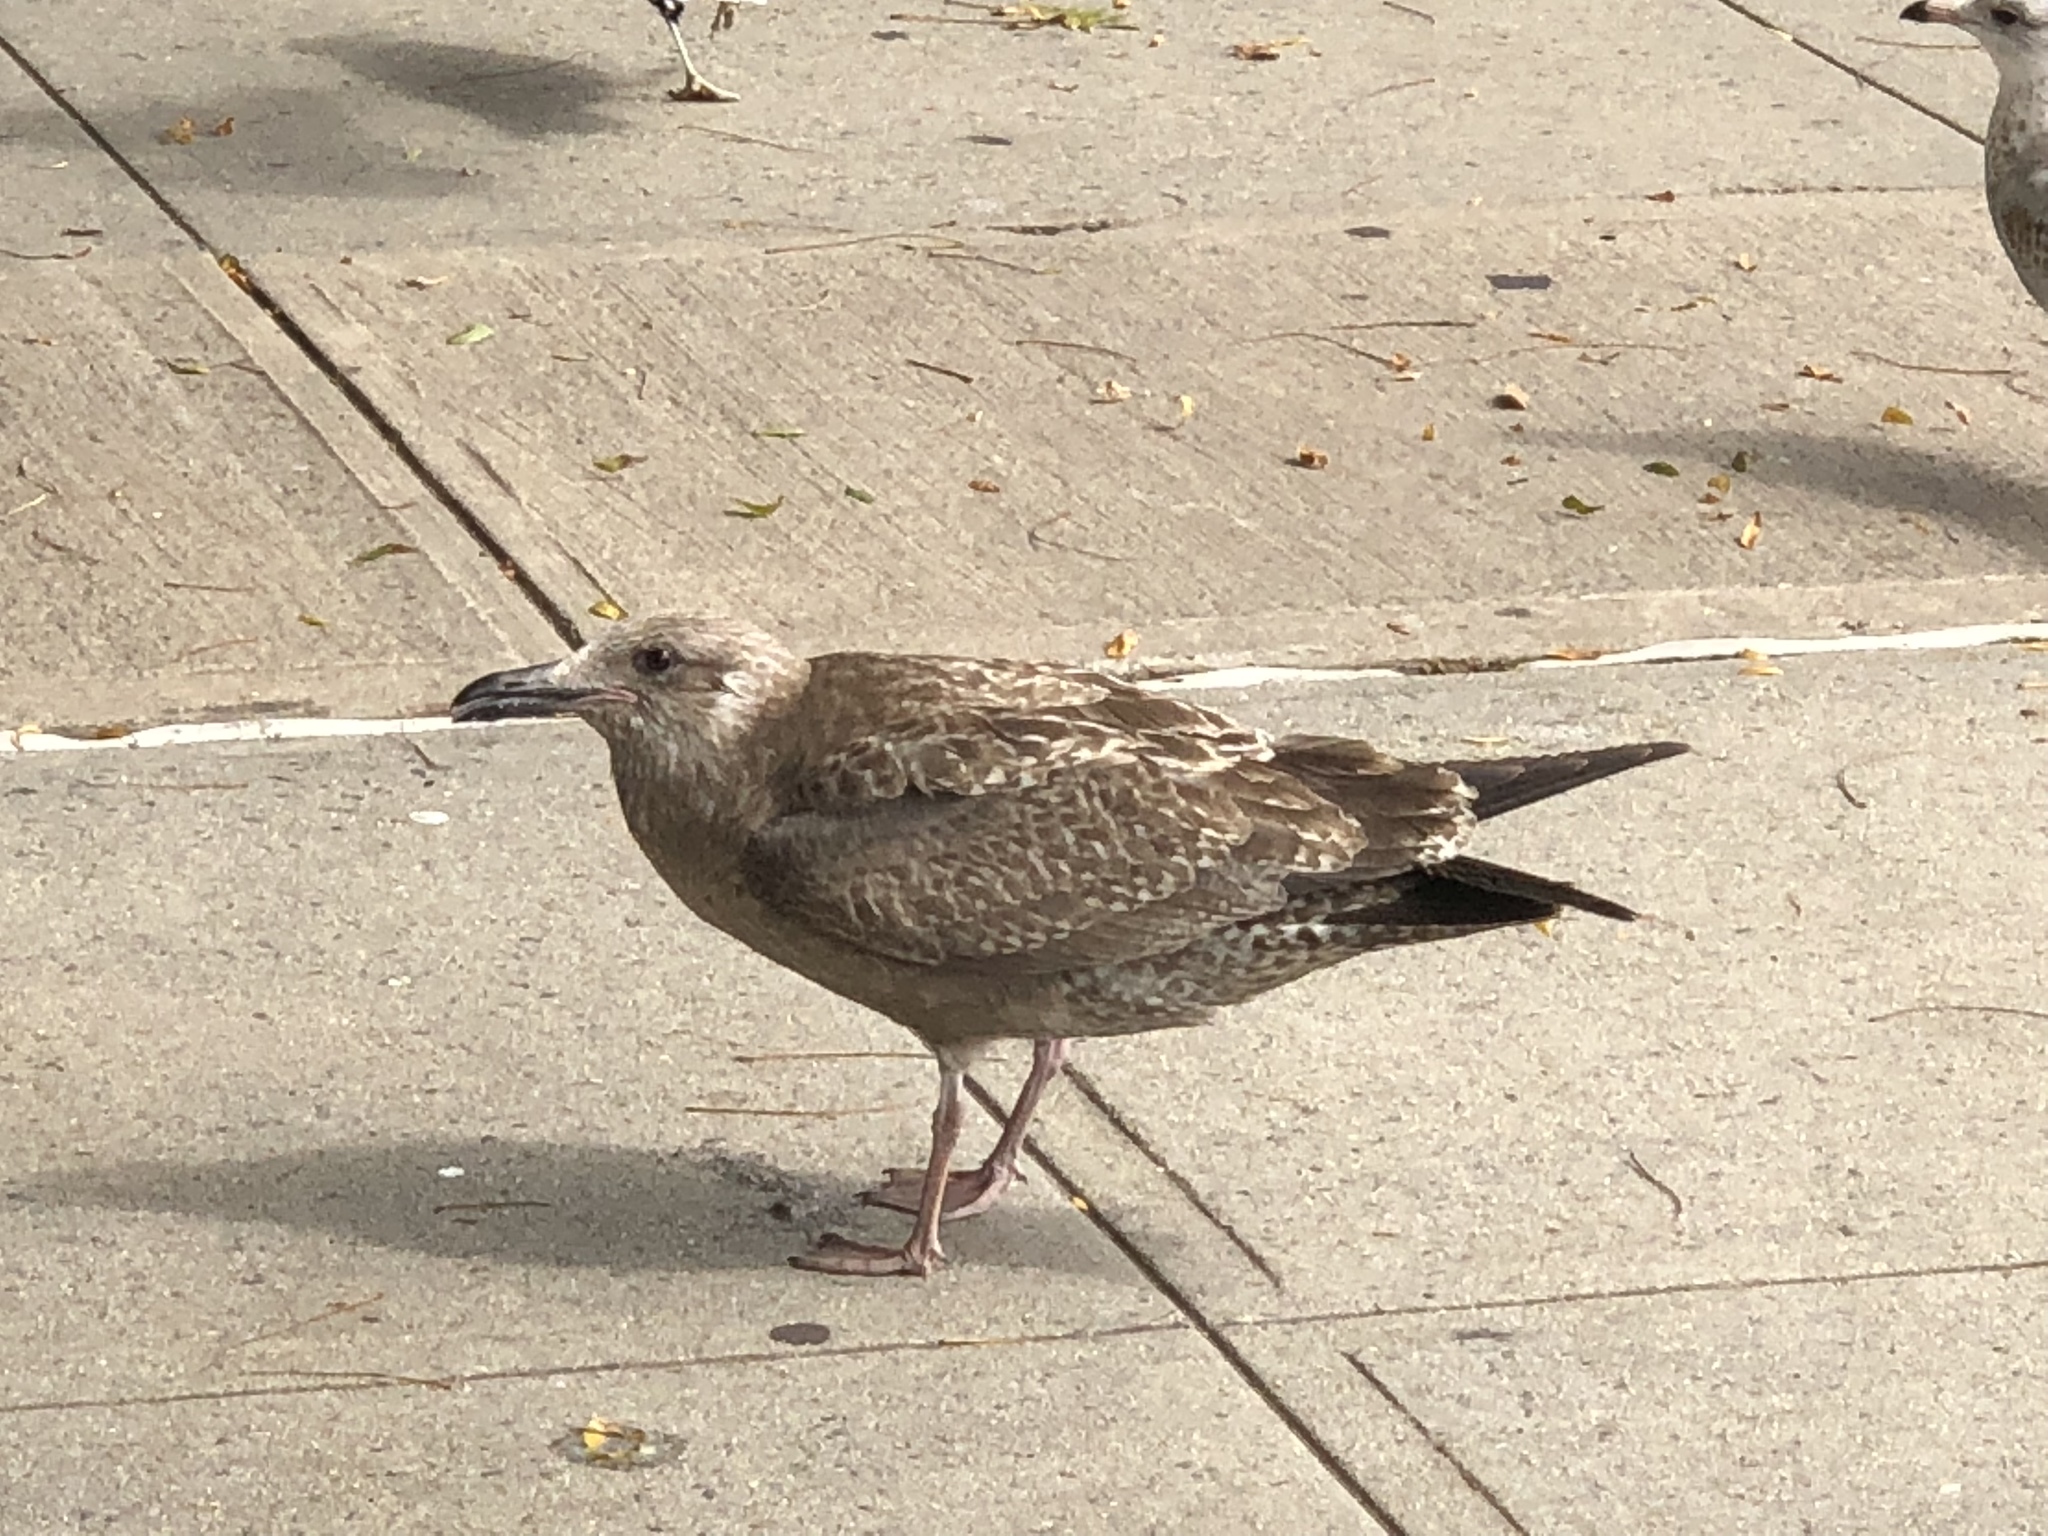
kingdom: Animalia
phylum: Chordata
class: Aves
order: Charadriiformes
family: Laridae
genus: Larus
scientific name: Larus argentatus
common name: Herring gull
